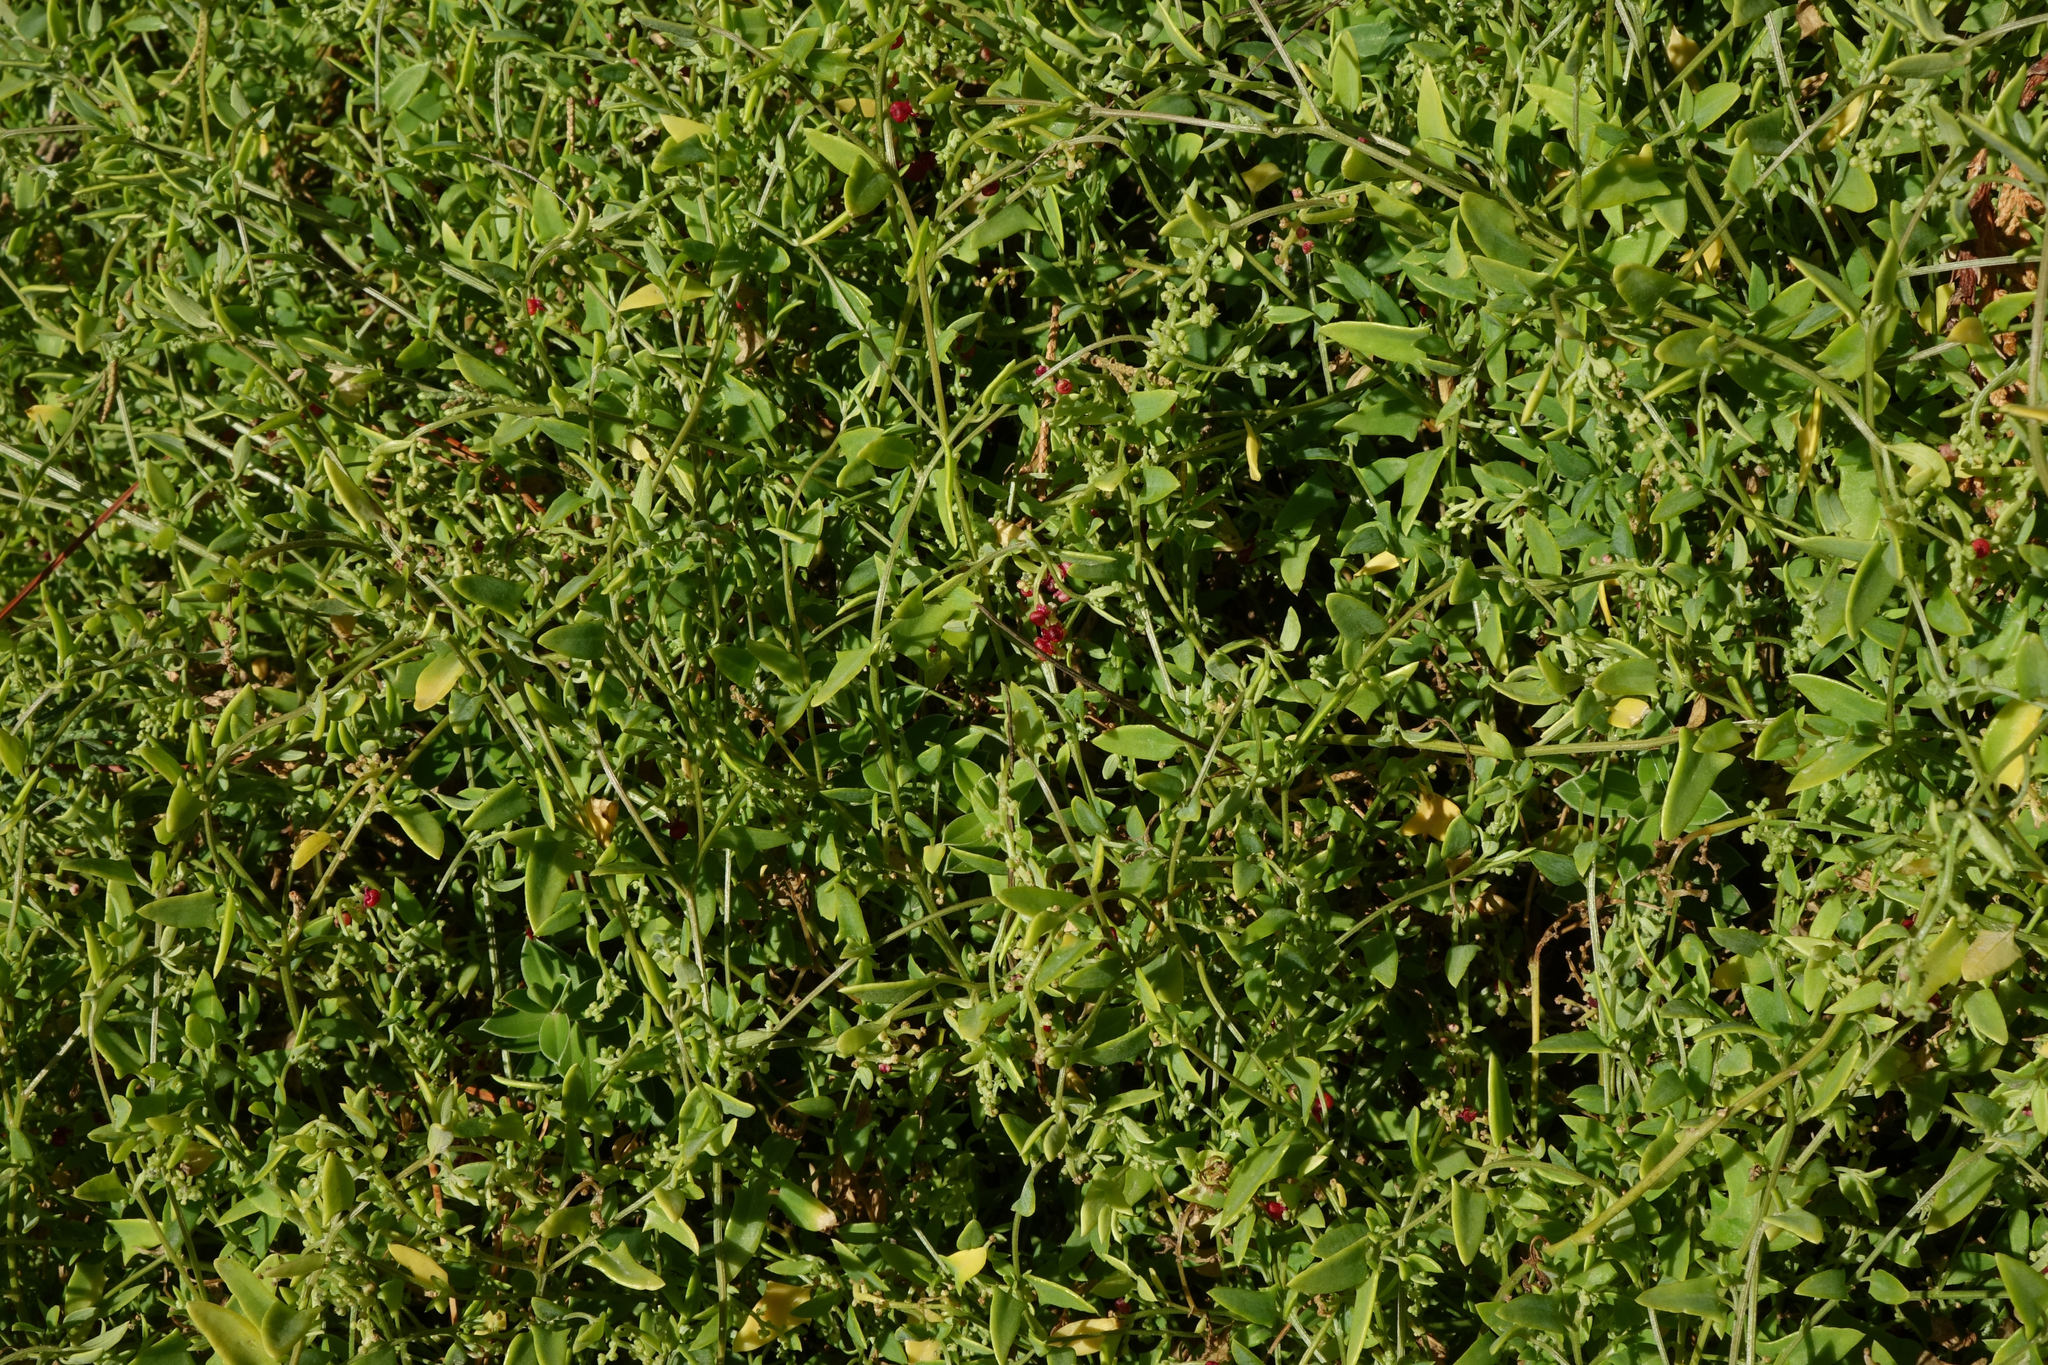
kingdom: Plantae
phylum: Tracheophyta
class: Magnoliopsida
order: Caryophyllales
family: Amaranthaceae
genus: Chenopodium
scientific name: Chenopodium nutans
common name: Climbing-saltbush
